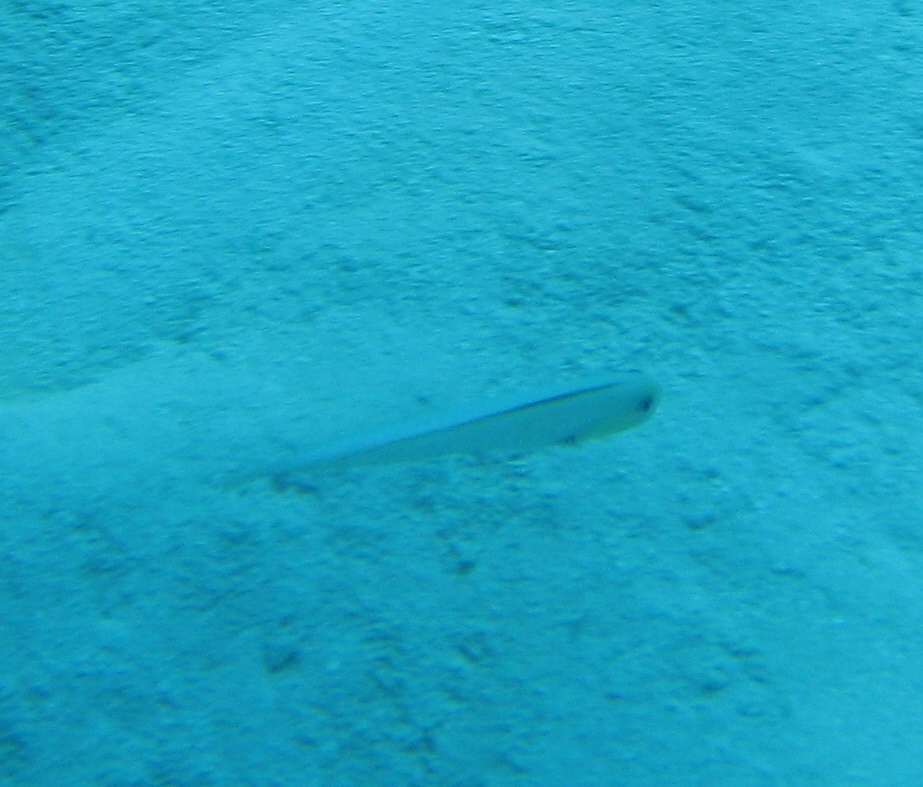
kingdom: Animalia
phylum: Chordata
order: Perciformes
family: Labridae
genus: Xyrichtys
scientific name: Xyrichtys martinicensis
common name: Rosy razorfish
